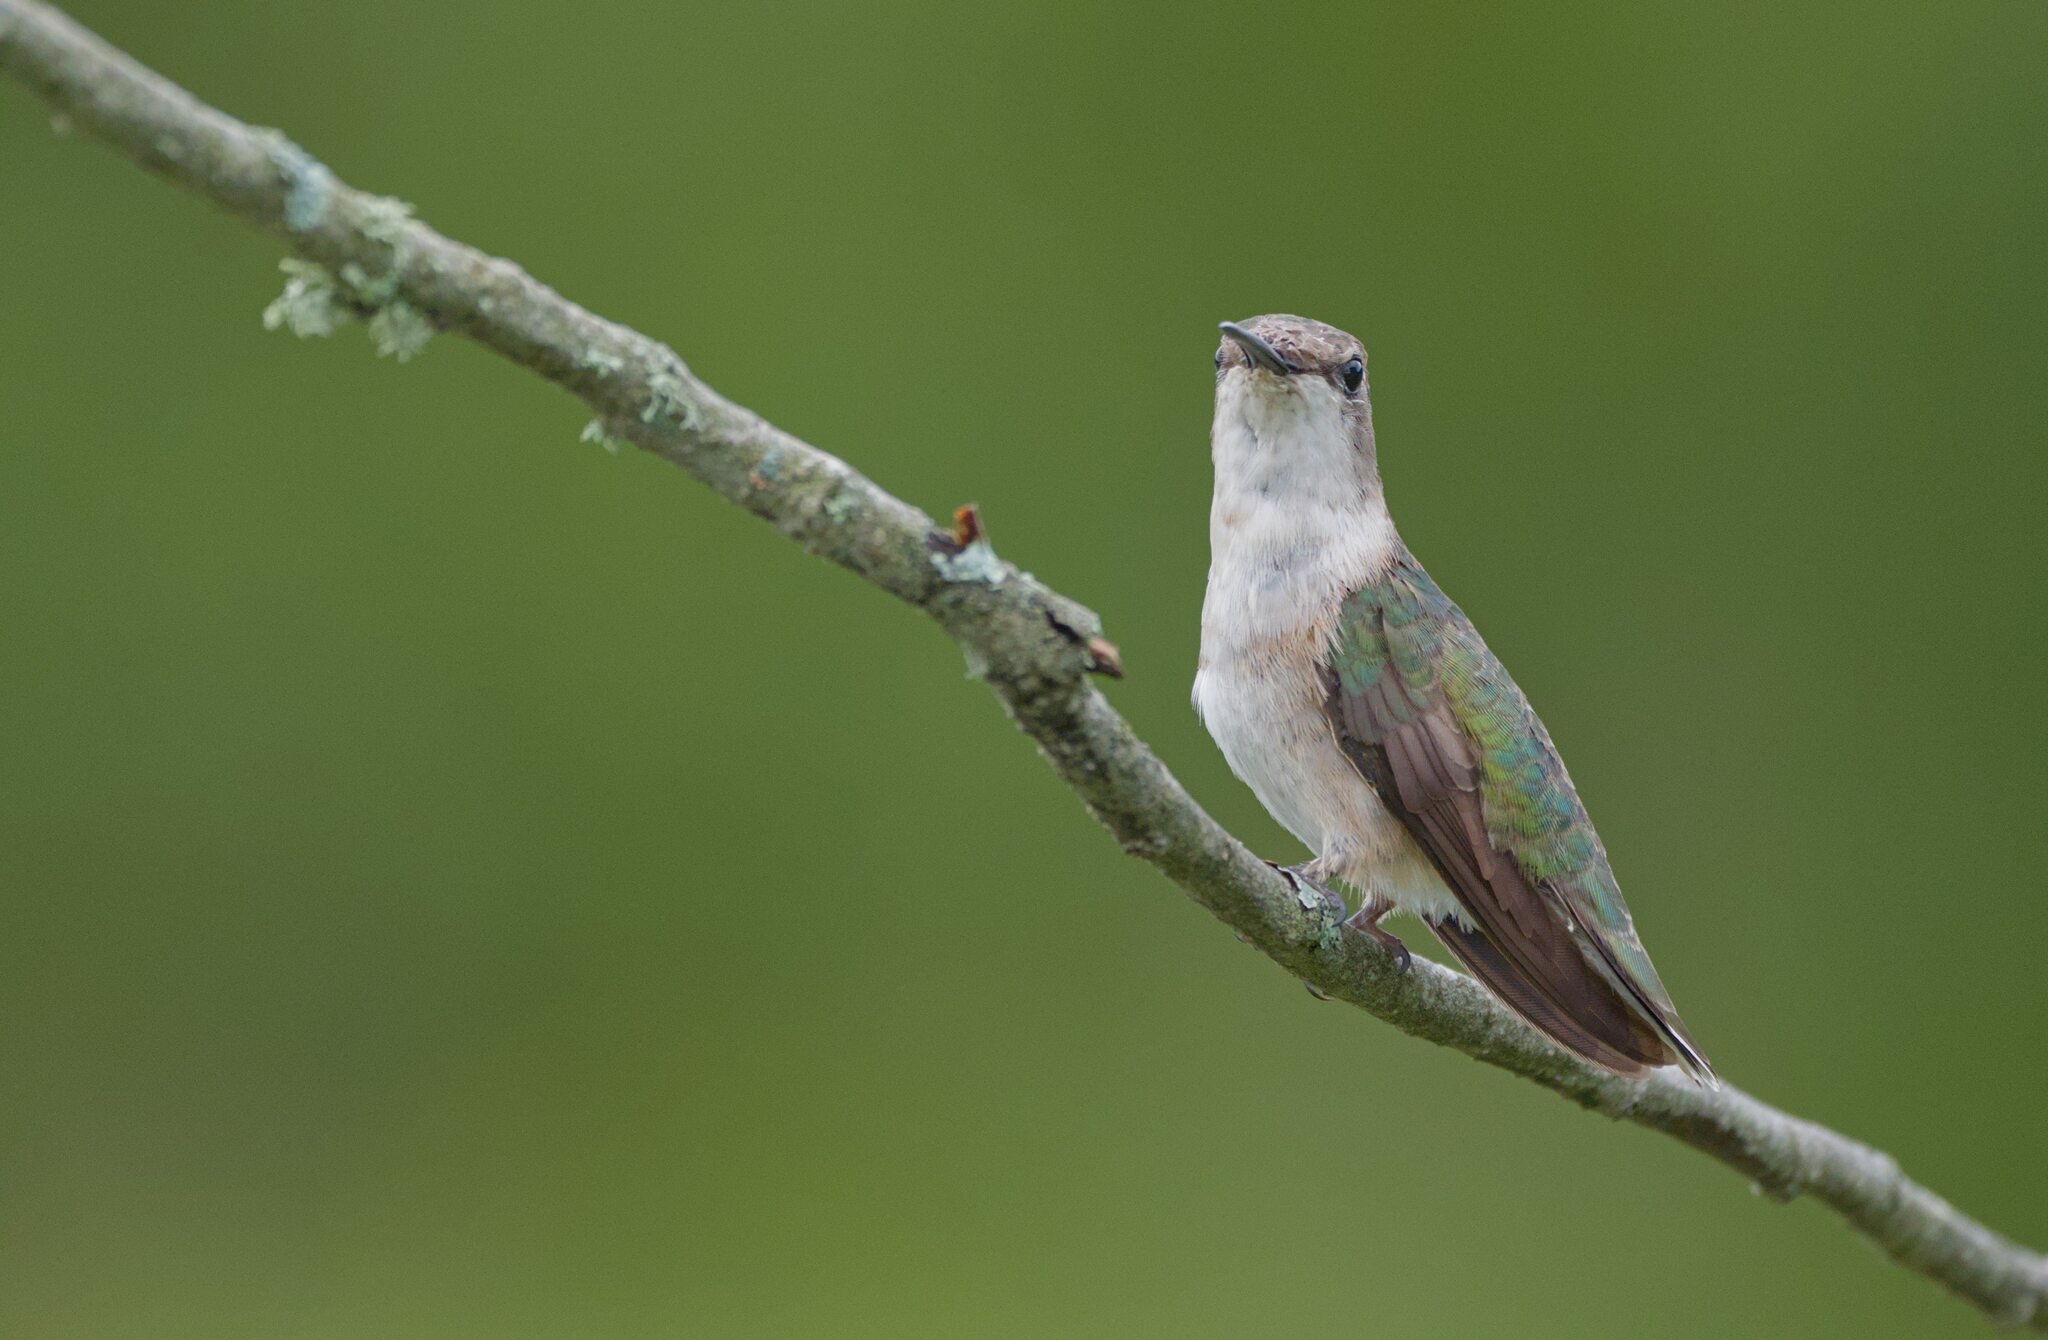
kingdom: Animalia
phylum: Chordata
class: Aves
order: Apodiformes
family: Trochilidae
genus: Archilochus
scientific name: Archilochus colubris
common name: Ruby-throated hummingbird
